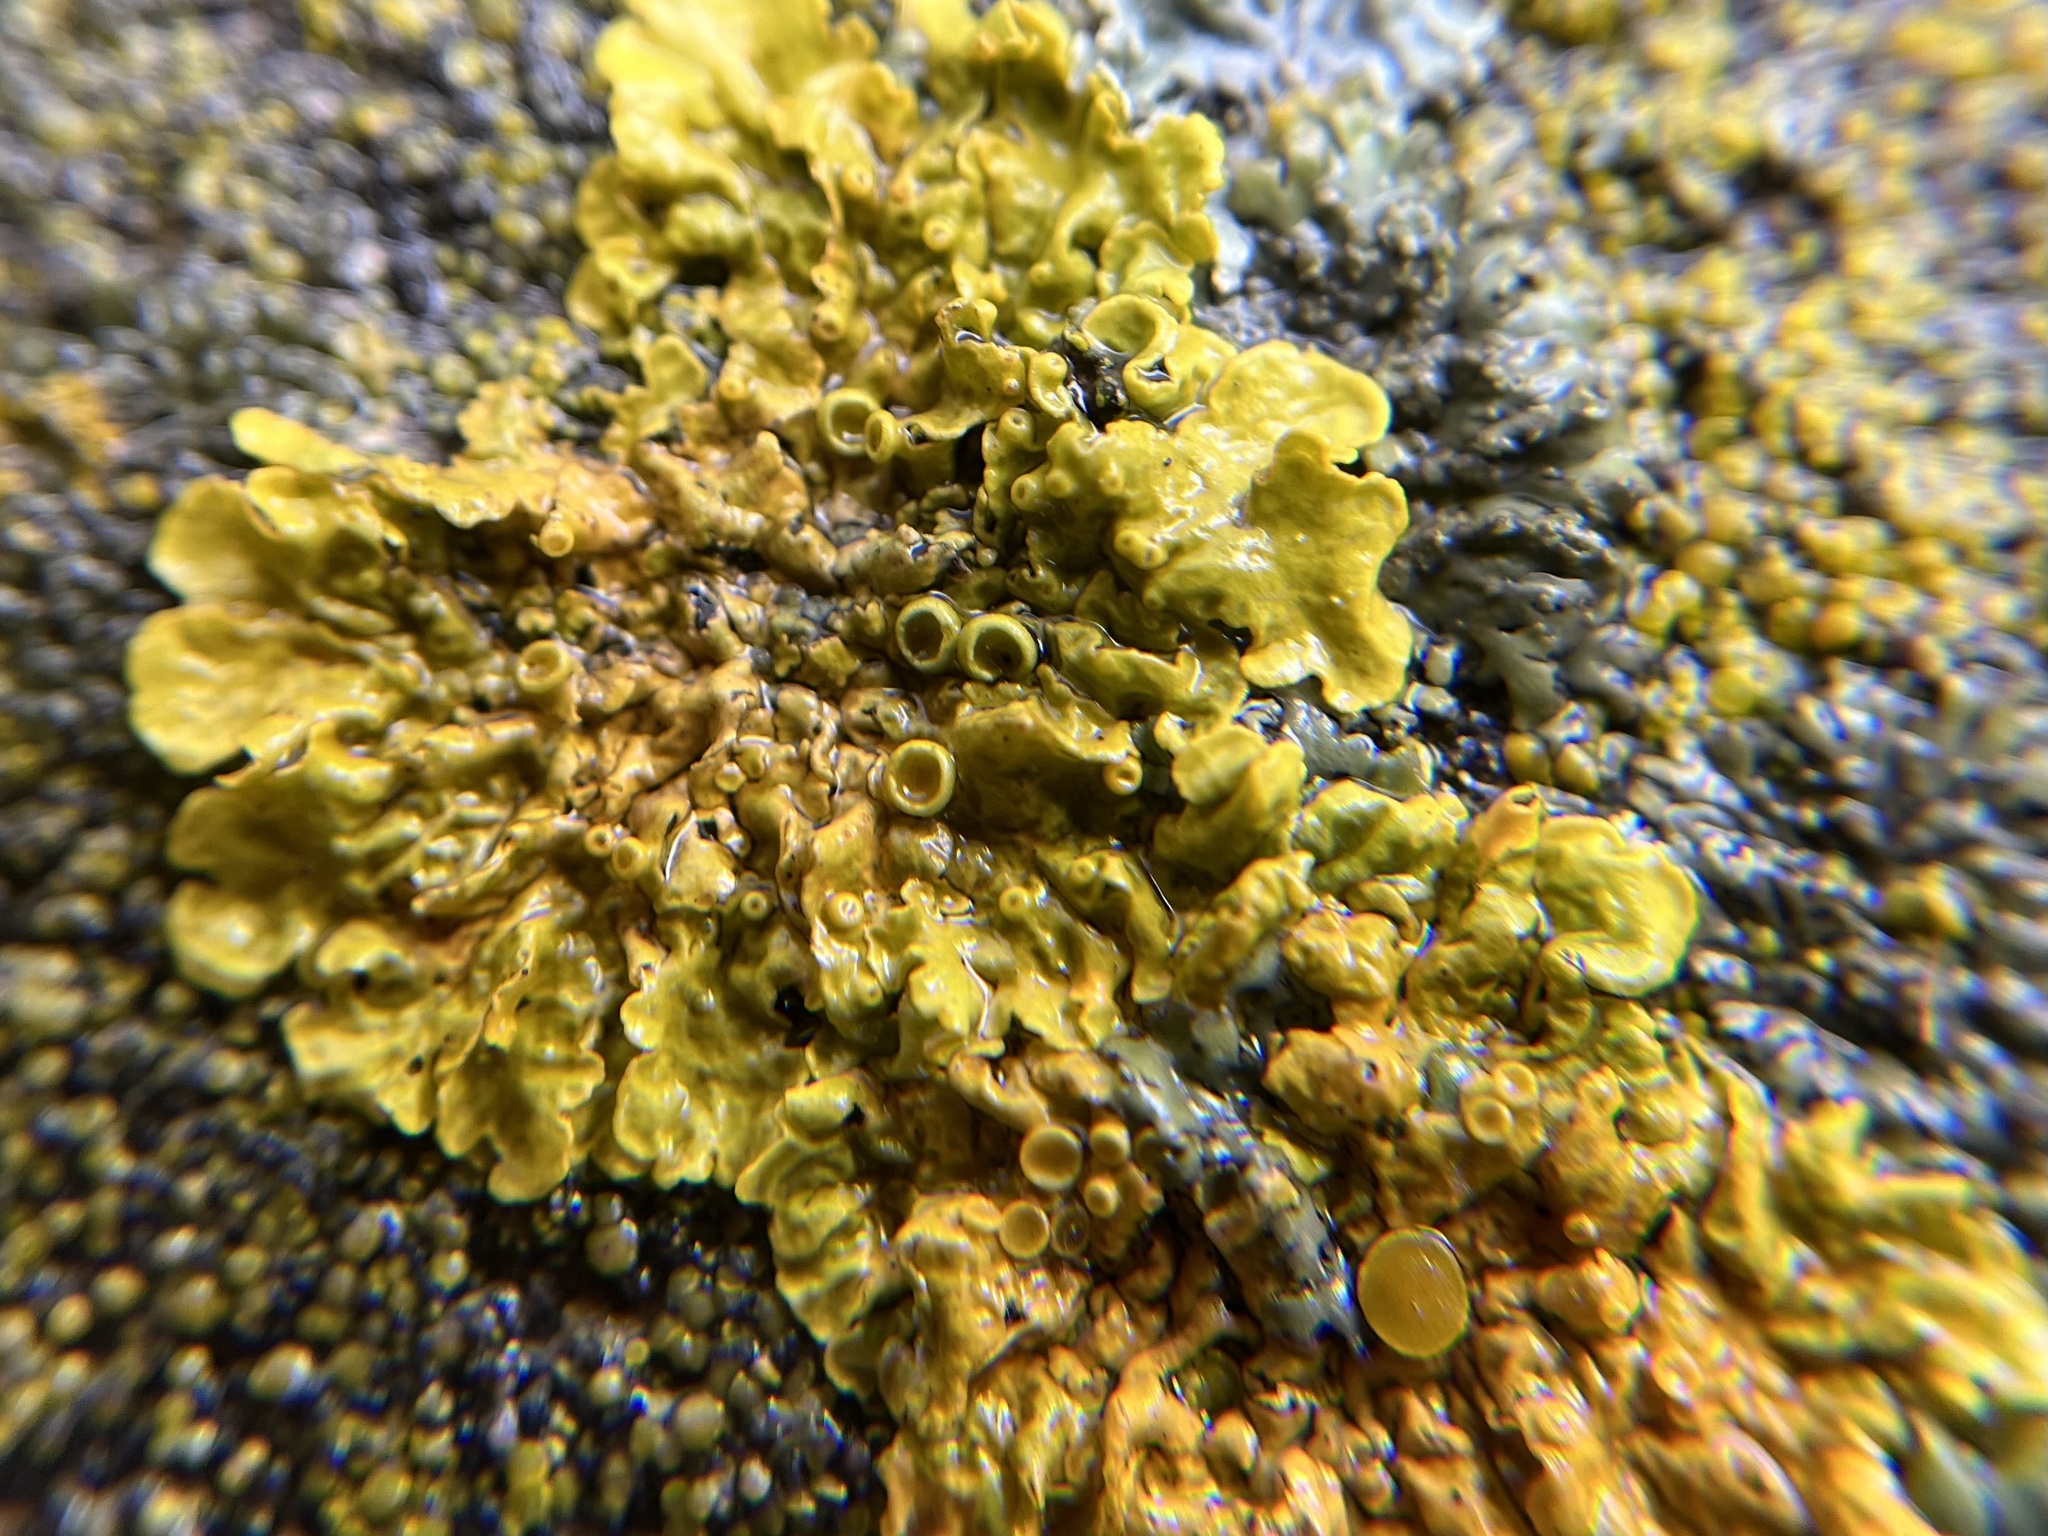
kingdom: Fungi
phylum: Ascomycota
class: Lecanoromycetes
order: Teloschistales
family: Teloschistaceae
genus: Xanthoria
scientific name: Xanthoria parietina
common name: Common orange lichen
